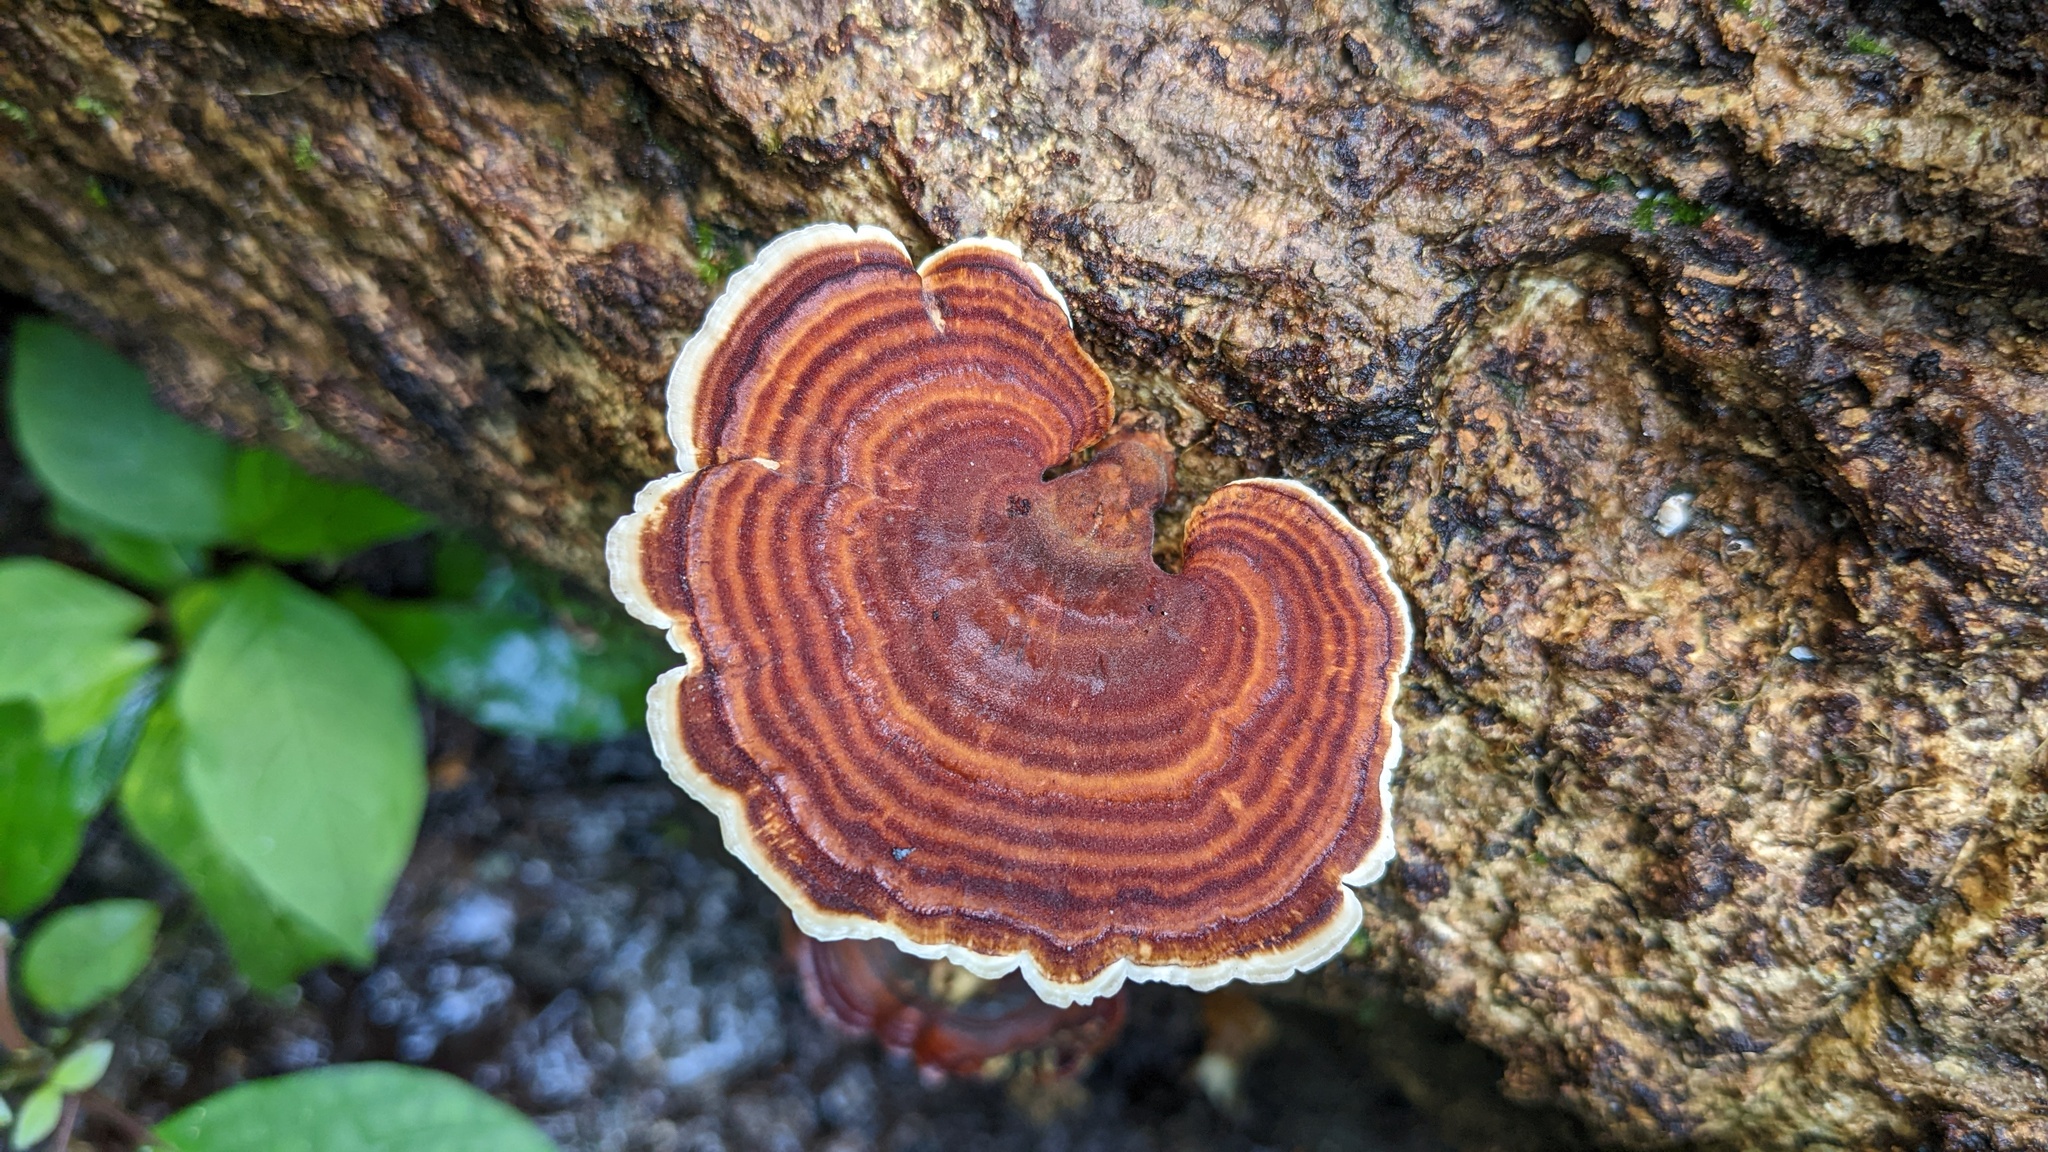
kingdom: Fungi
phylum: Basidiomycota
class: Agaricomycetes
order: Polyporales
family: Polyporaceae
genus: Microporus
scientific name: Microporus affinis
